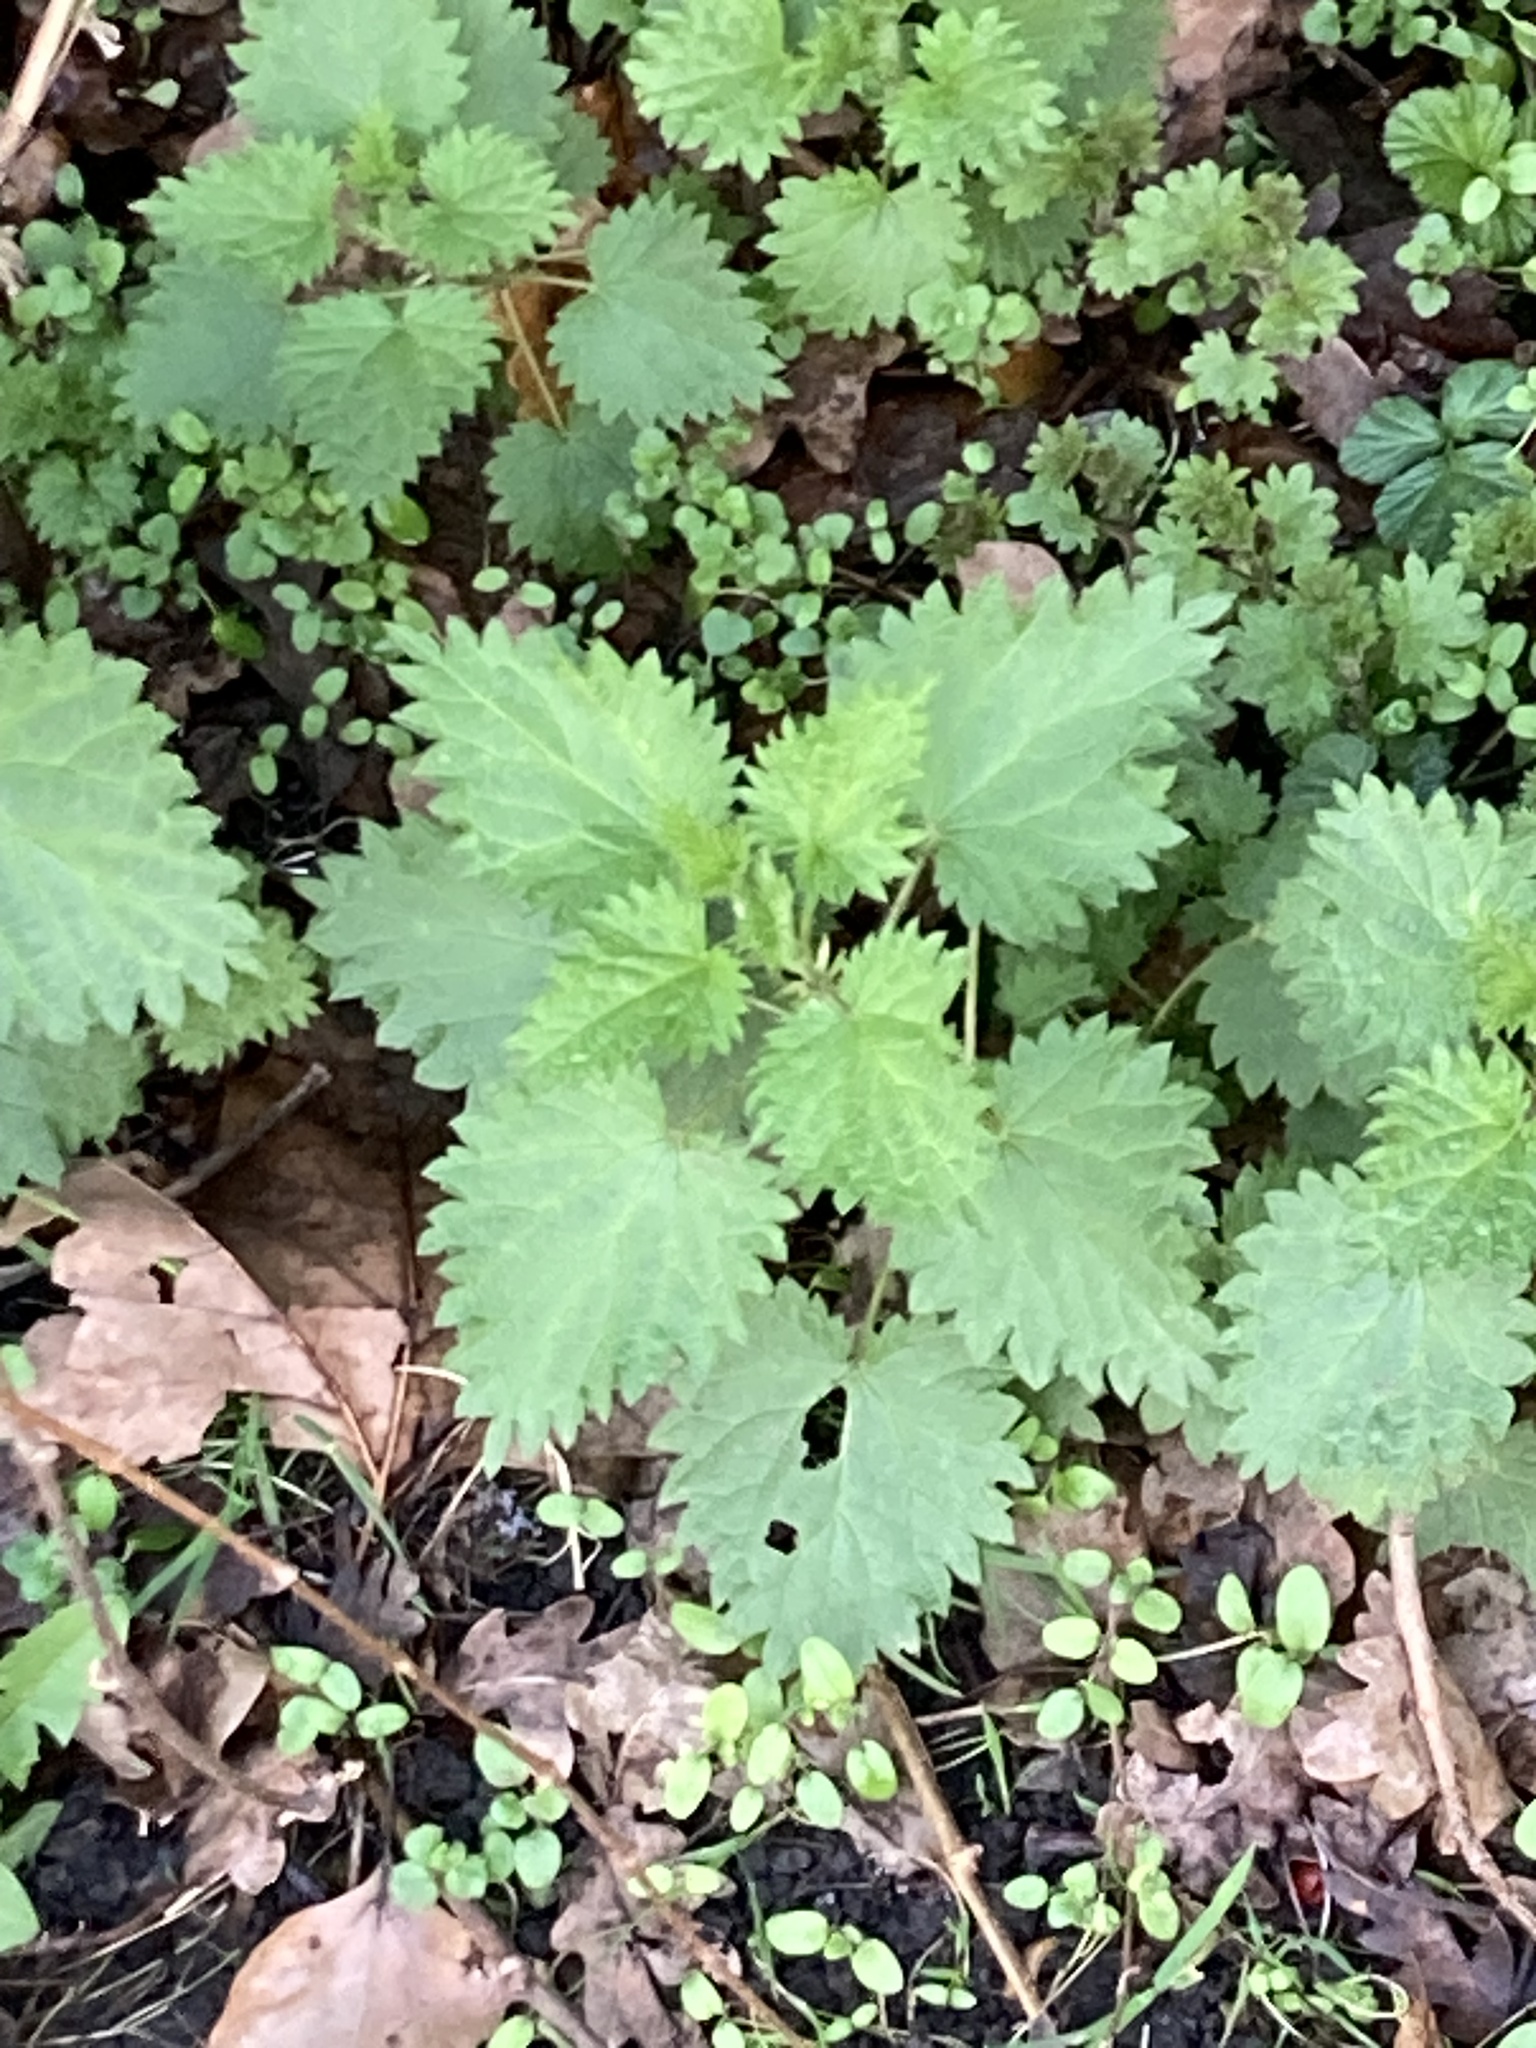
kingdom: Plantae
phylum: Tracheophyta
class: Magnoliopsida
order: Rosales
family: Urticaceae
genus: Urtica
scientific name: Urtica dioica
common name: Common nettle
